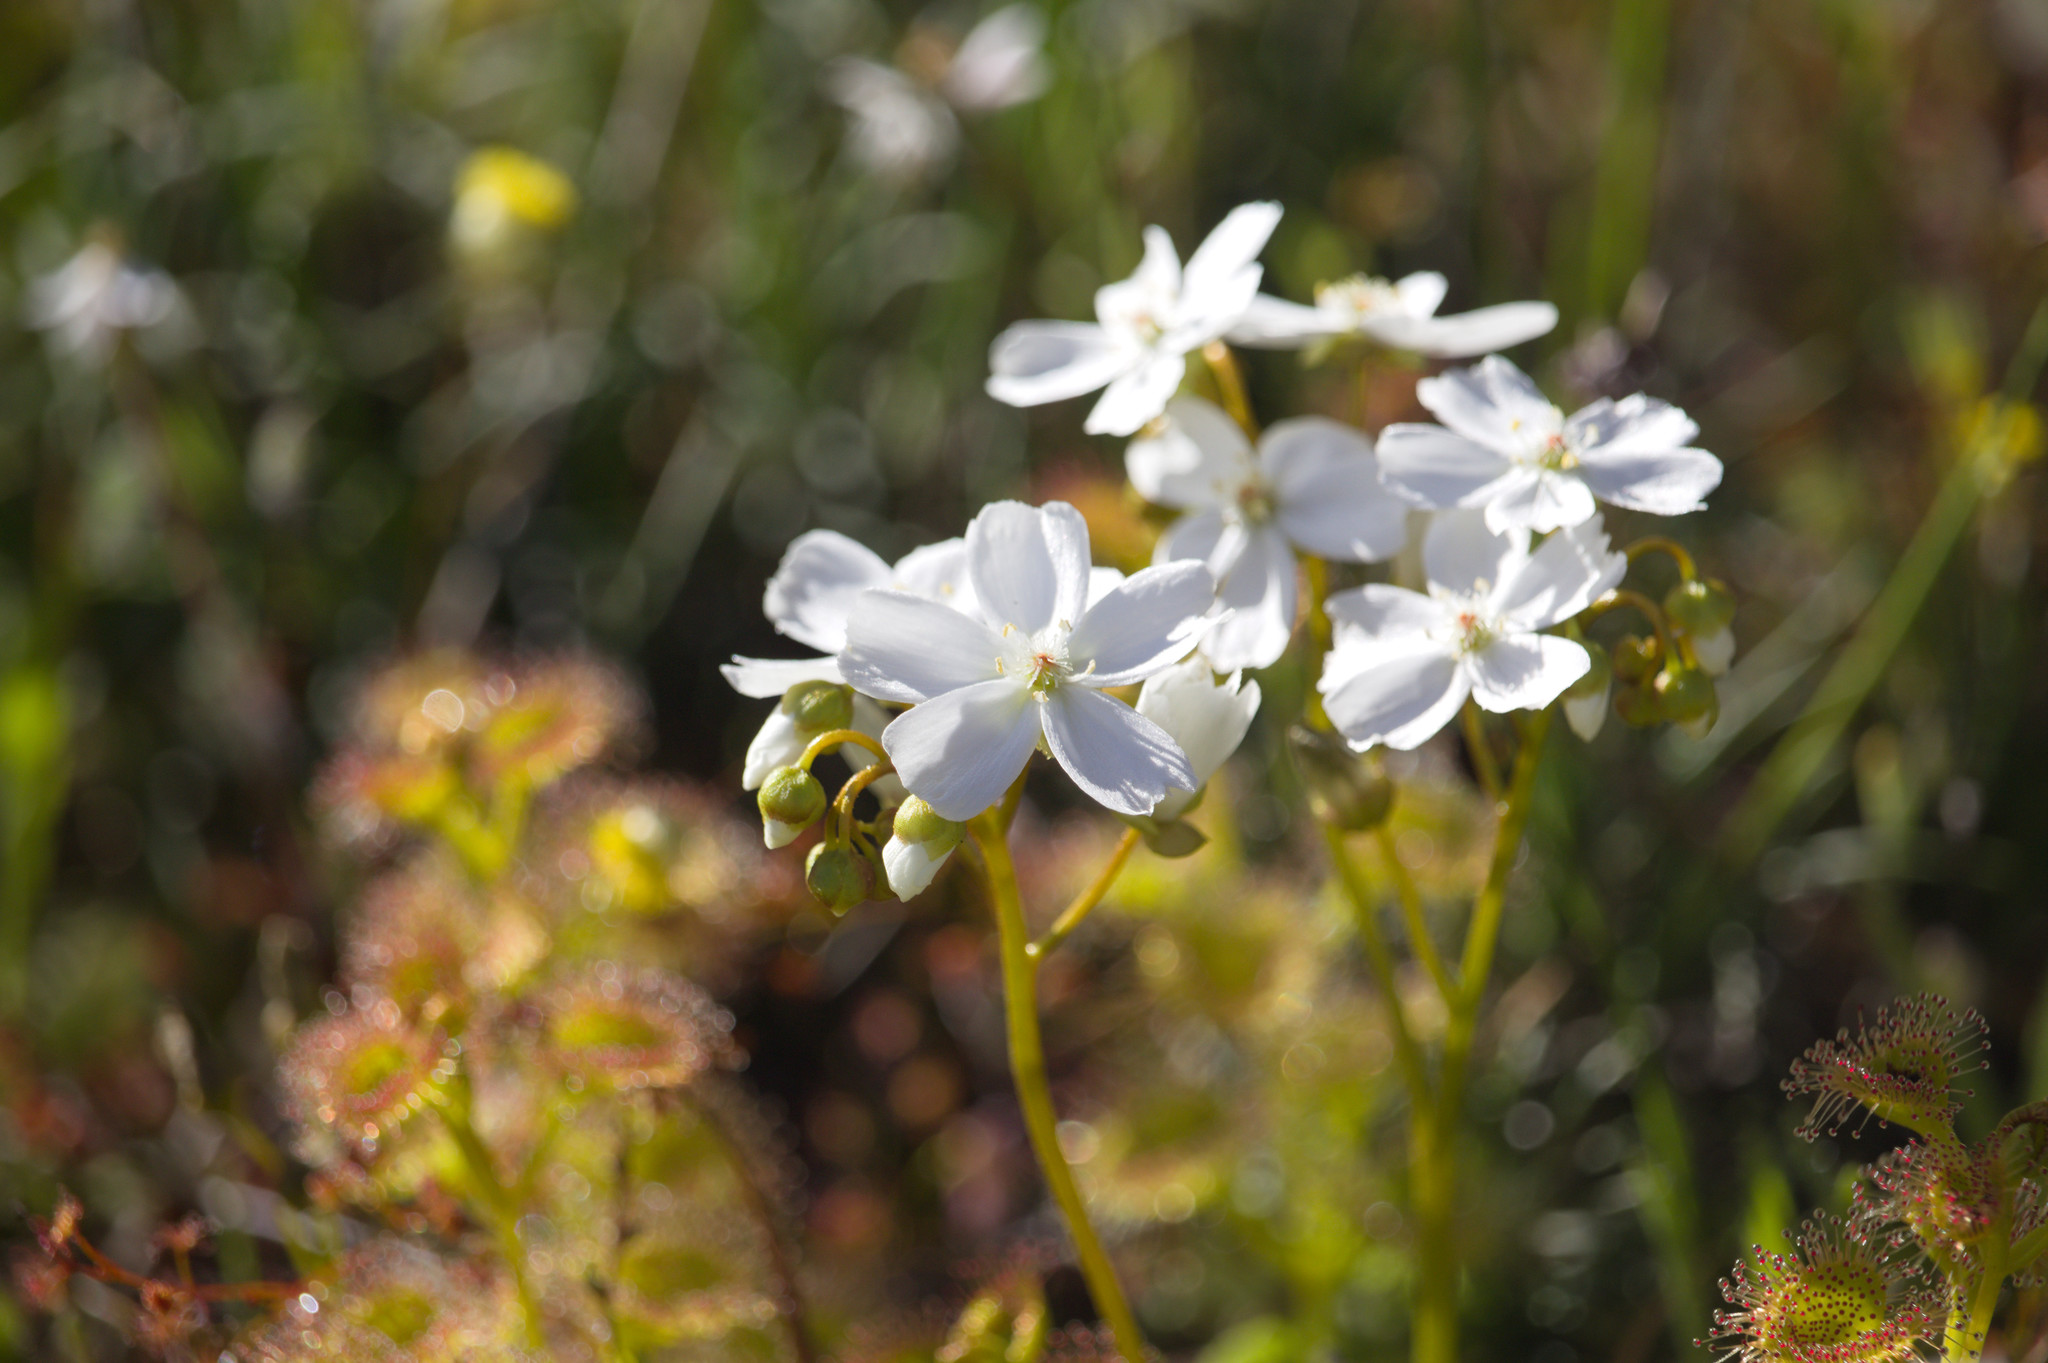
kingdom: Plantae
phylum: Tracheophyta
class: Magnoliopsida
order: Caryophyllales
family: Droseraceae
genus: Drosera
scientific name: Drosera rupicola
